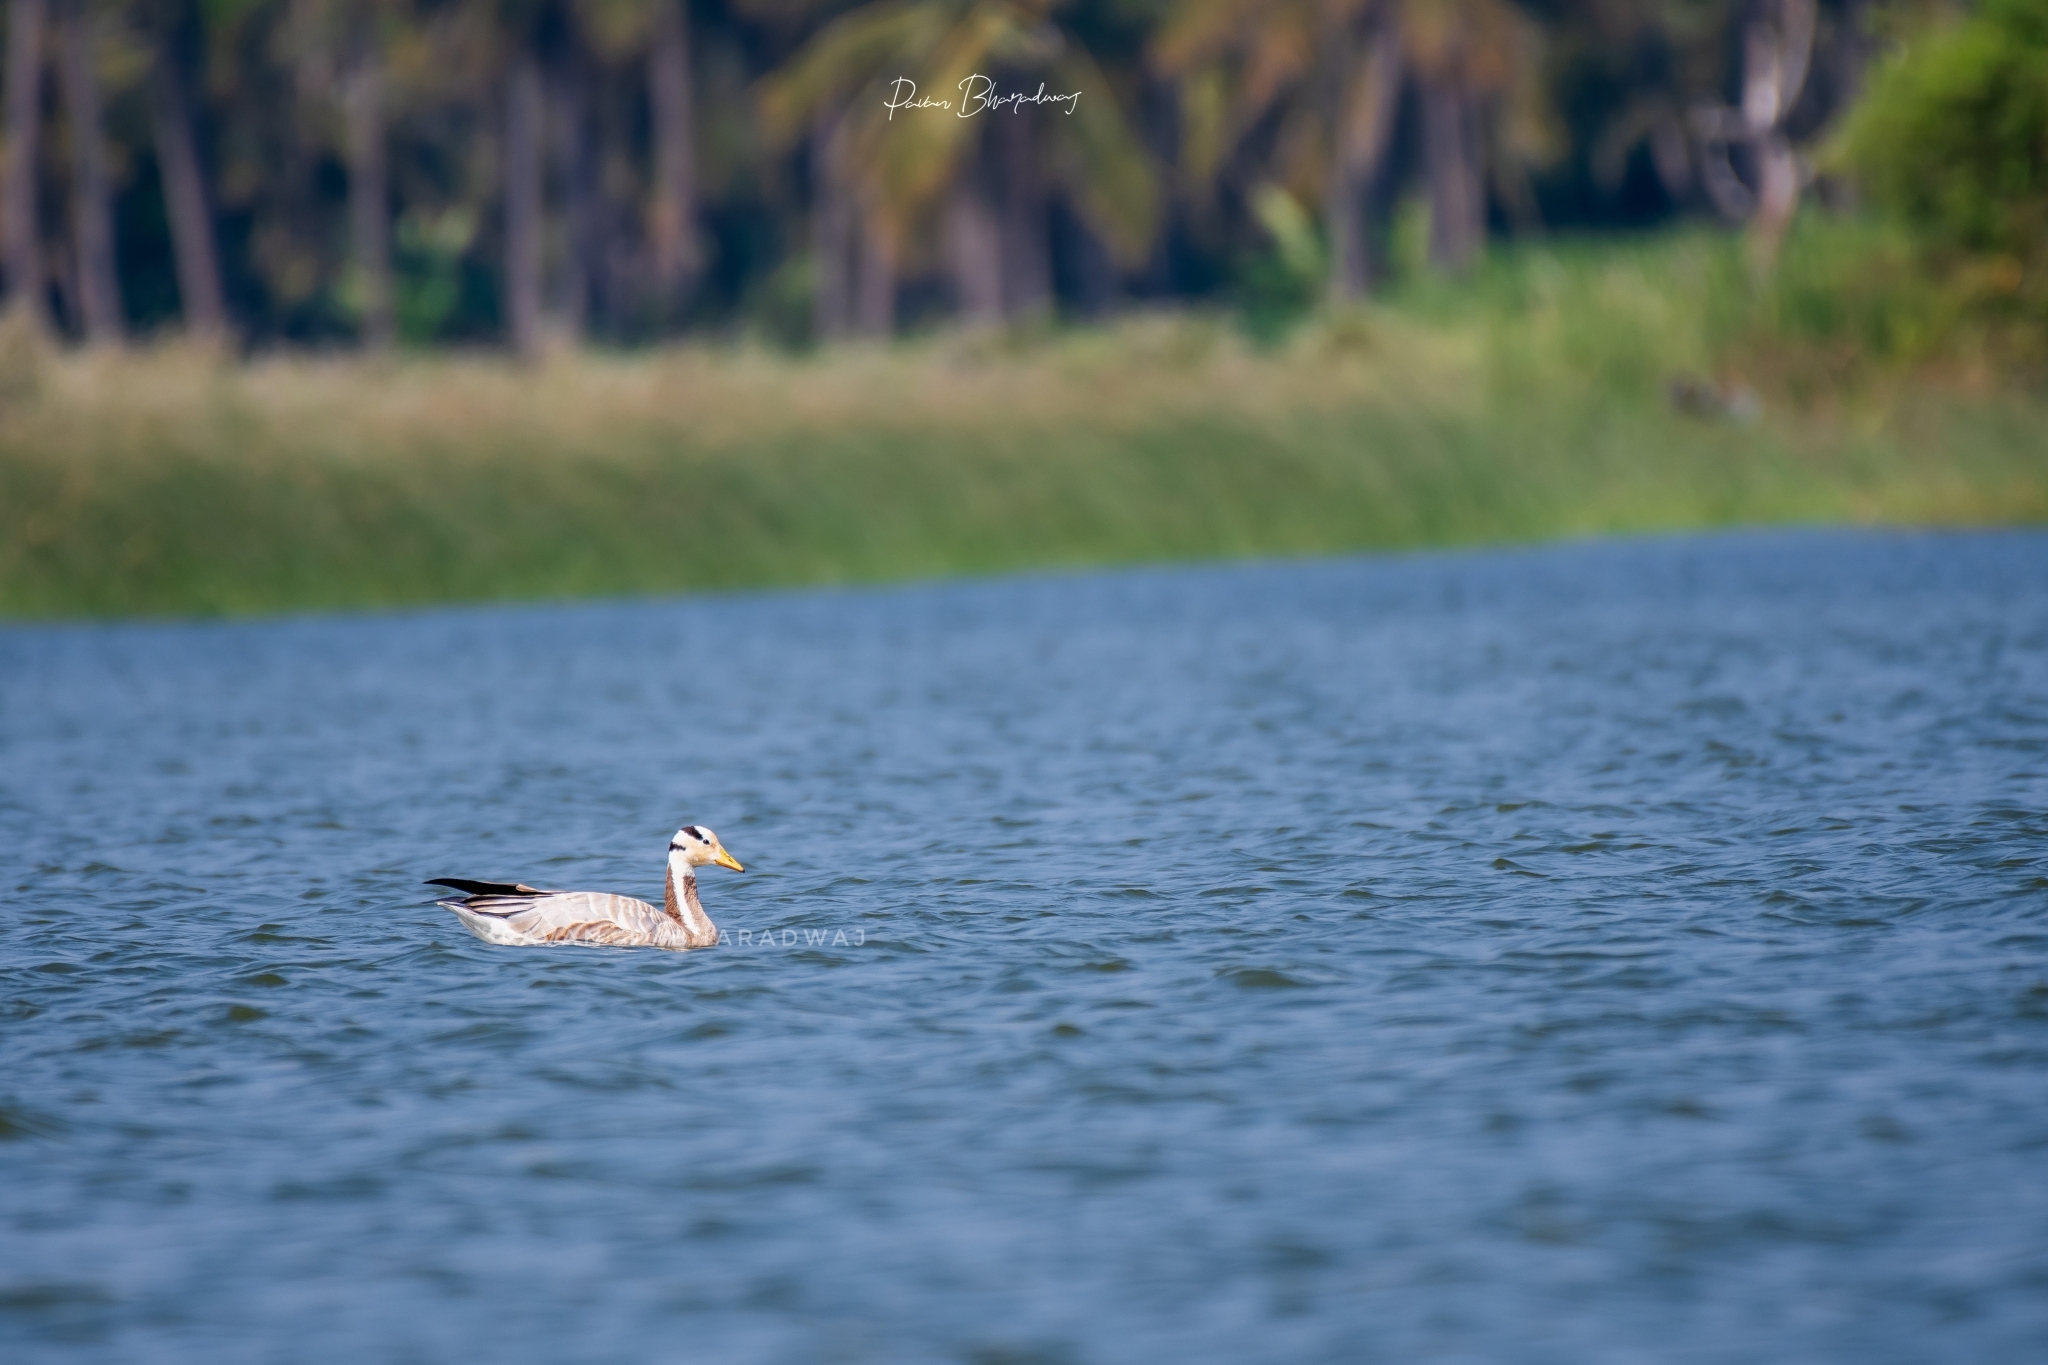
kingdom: Animalia
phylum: Chordata
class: Aves
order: Anseriformes
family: Anatidae
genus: Anser
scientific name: Anser indicus
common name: Bar-headed goose
